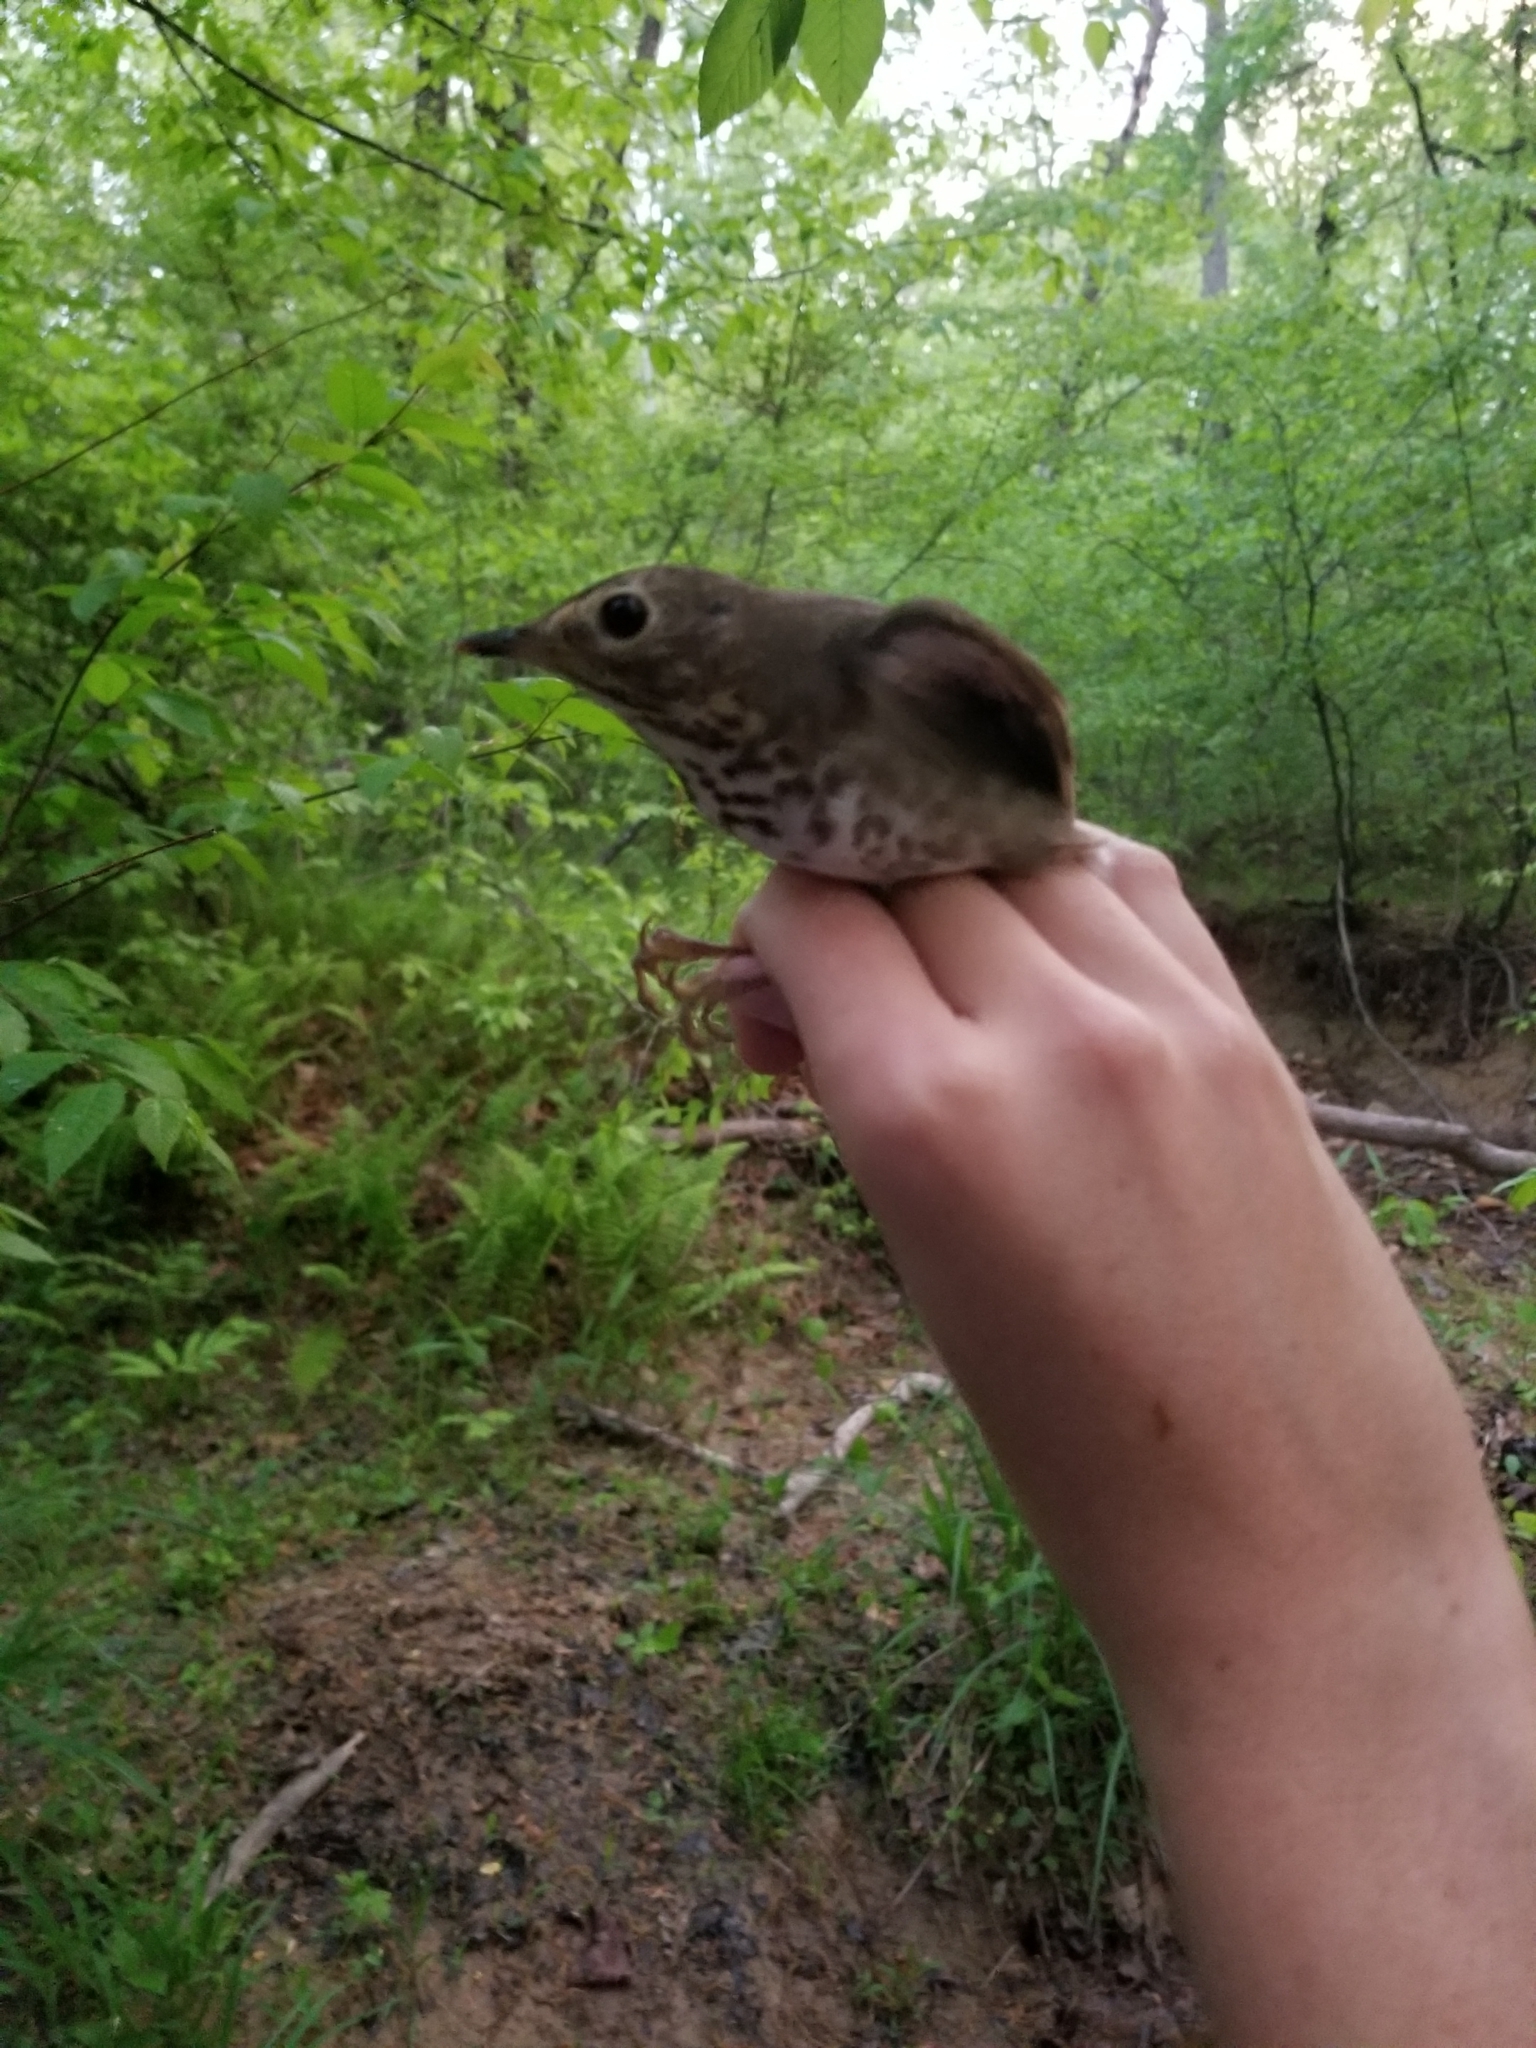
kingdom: Animalia
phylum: Chordata
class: Aves
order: Passeriformes
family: Turdidae
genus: Catharus
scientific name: Catharus ustulatus
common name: Swainson's thrush
